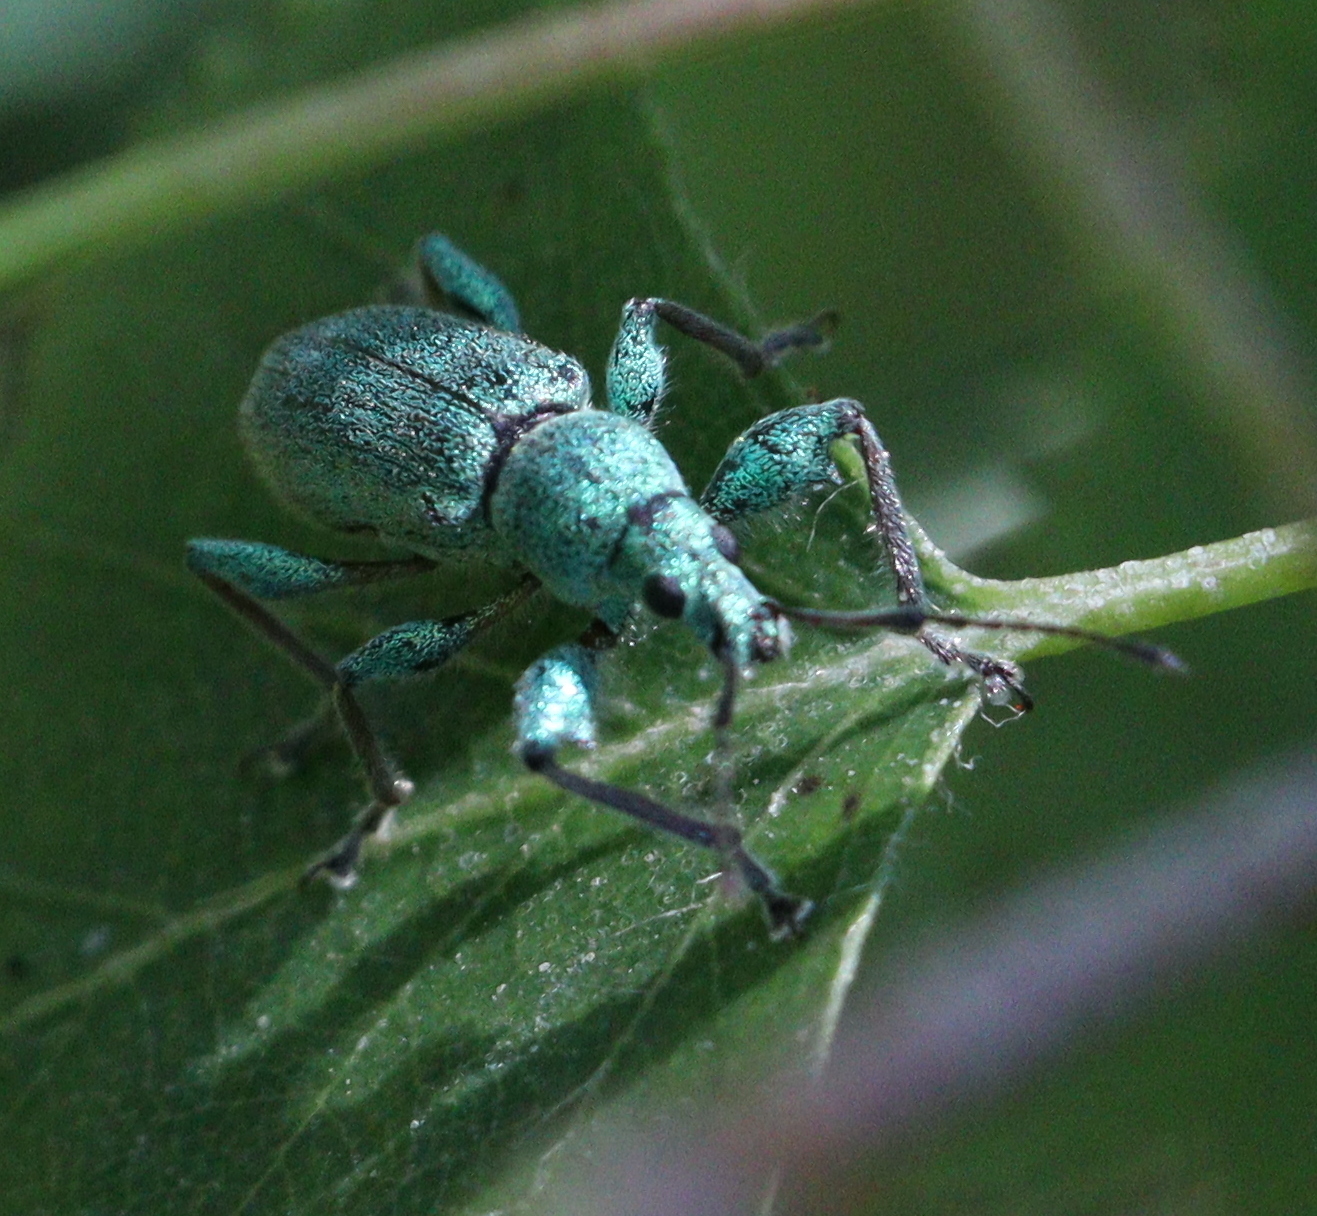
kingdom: Animalia
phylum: Arthropoda
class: Insecta
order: Coleoptera
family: Curculionidae
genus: Phyllobius
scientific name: Phyllobius arborator
